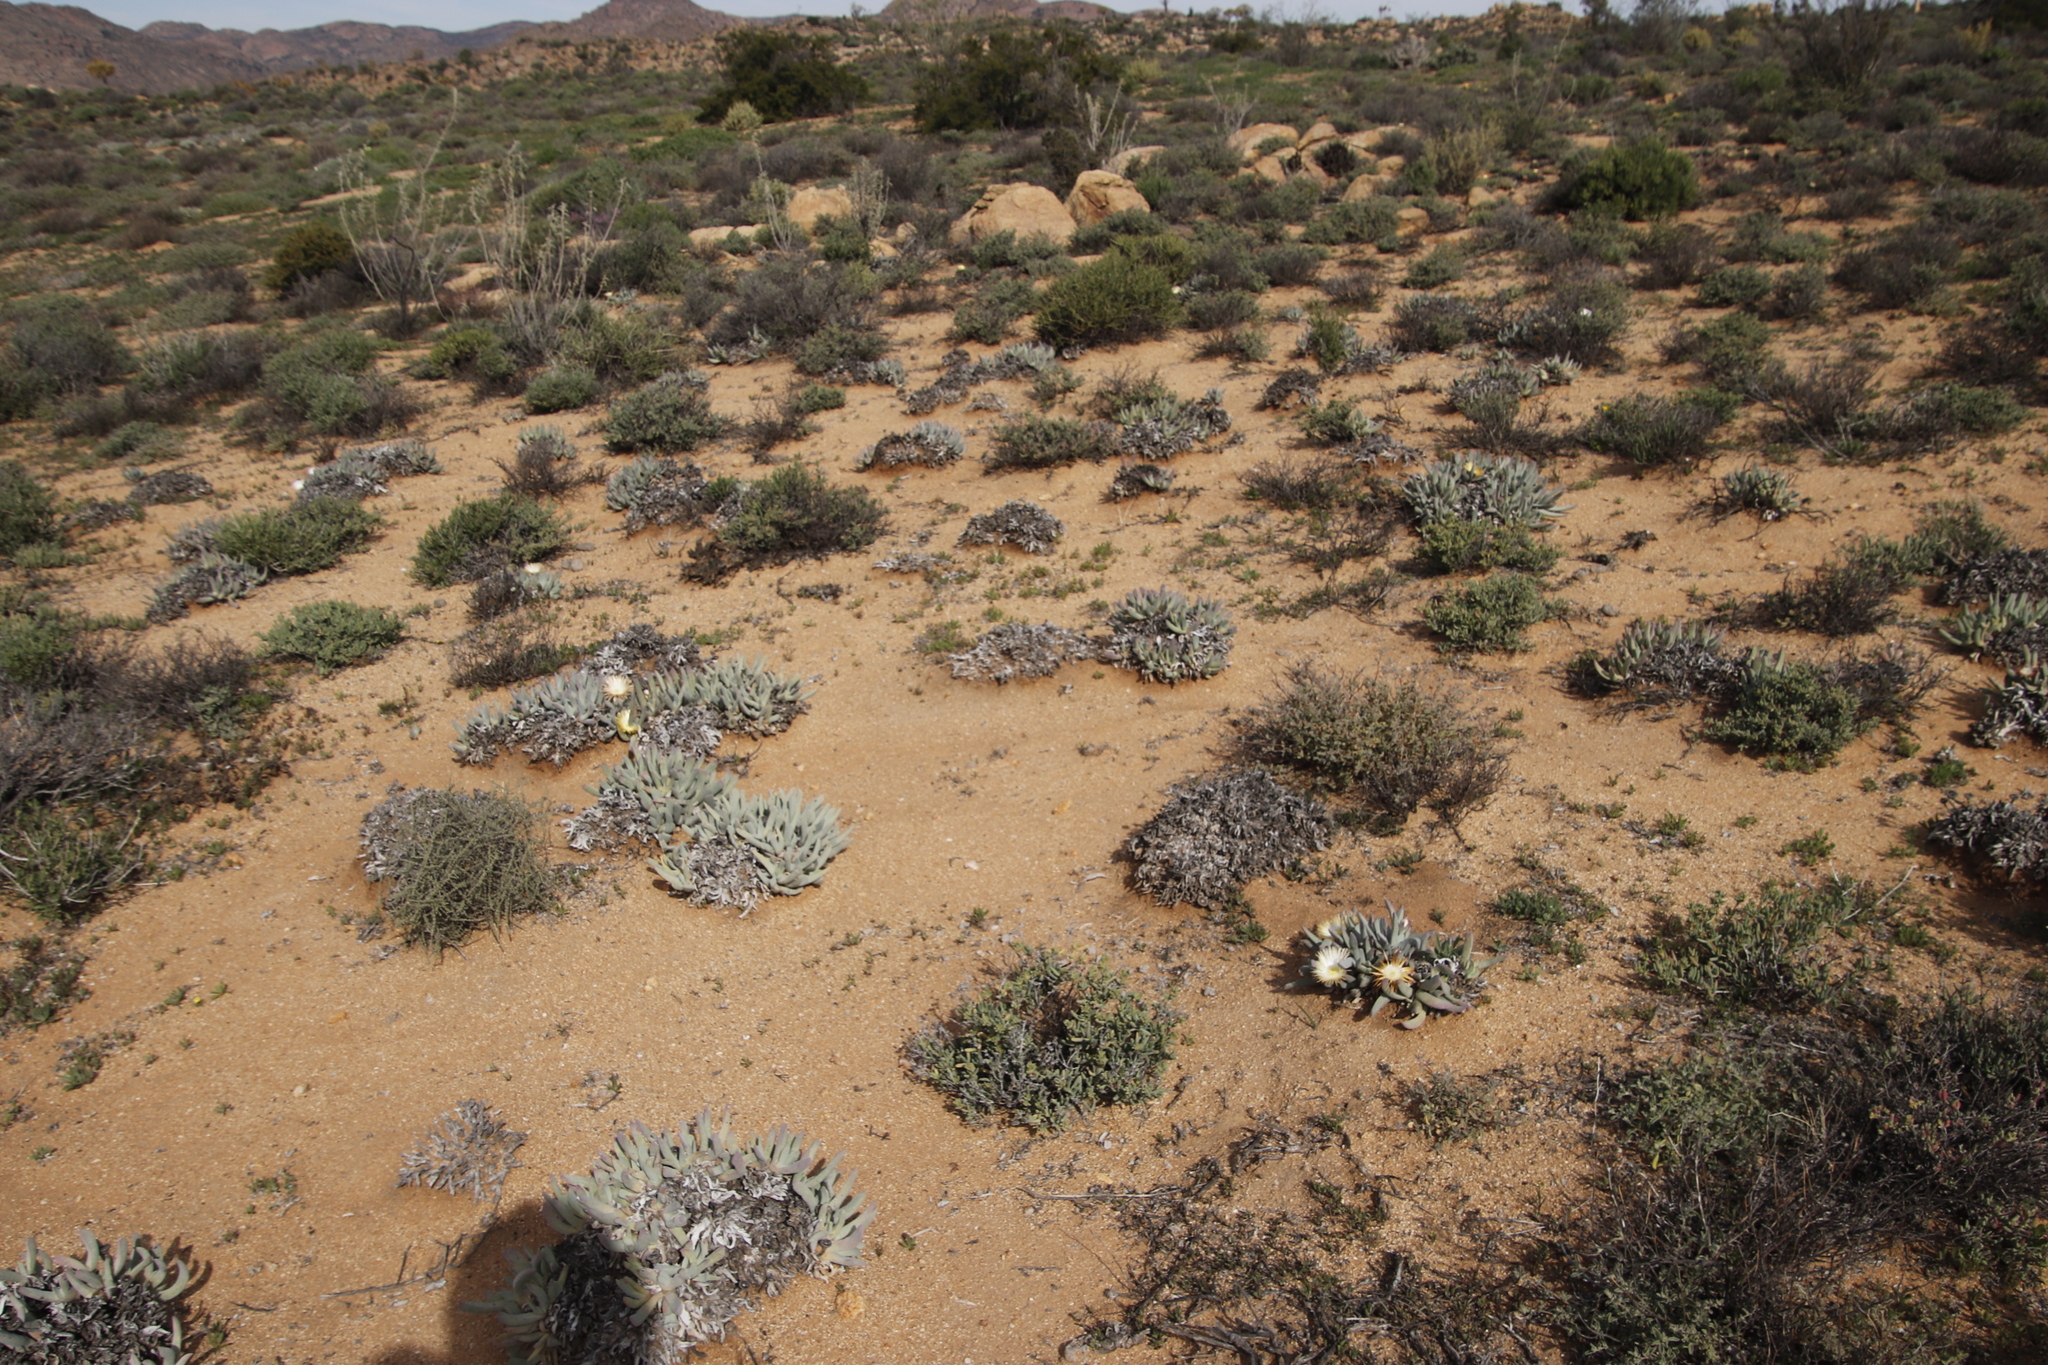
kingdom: Plantae
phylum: Tracheophyta
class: Magnoliopsida
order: Caryophyllales
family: Aizoaceae
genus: Cheiridopsis
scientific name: Cheiridopsis denticulata
